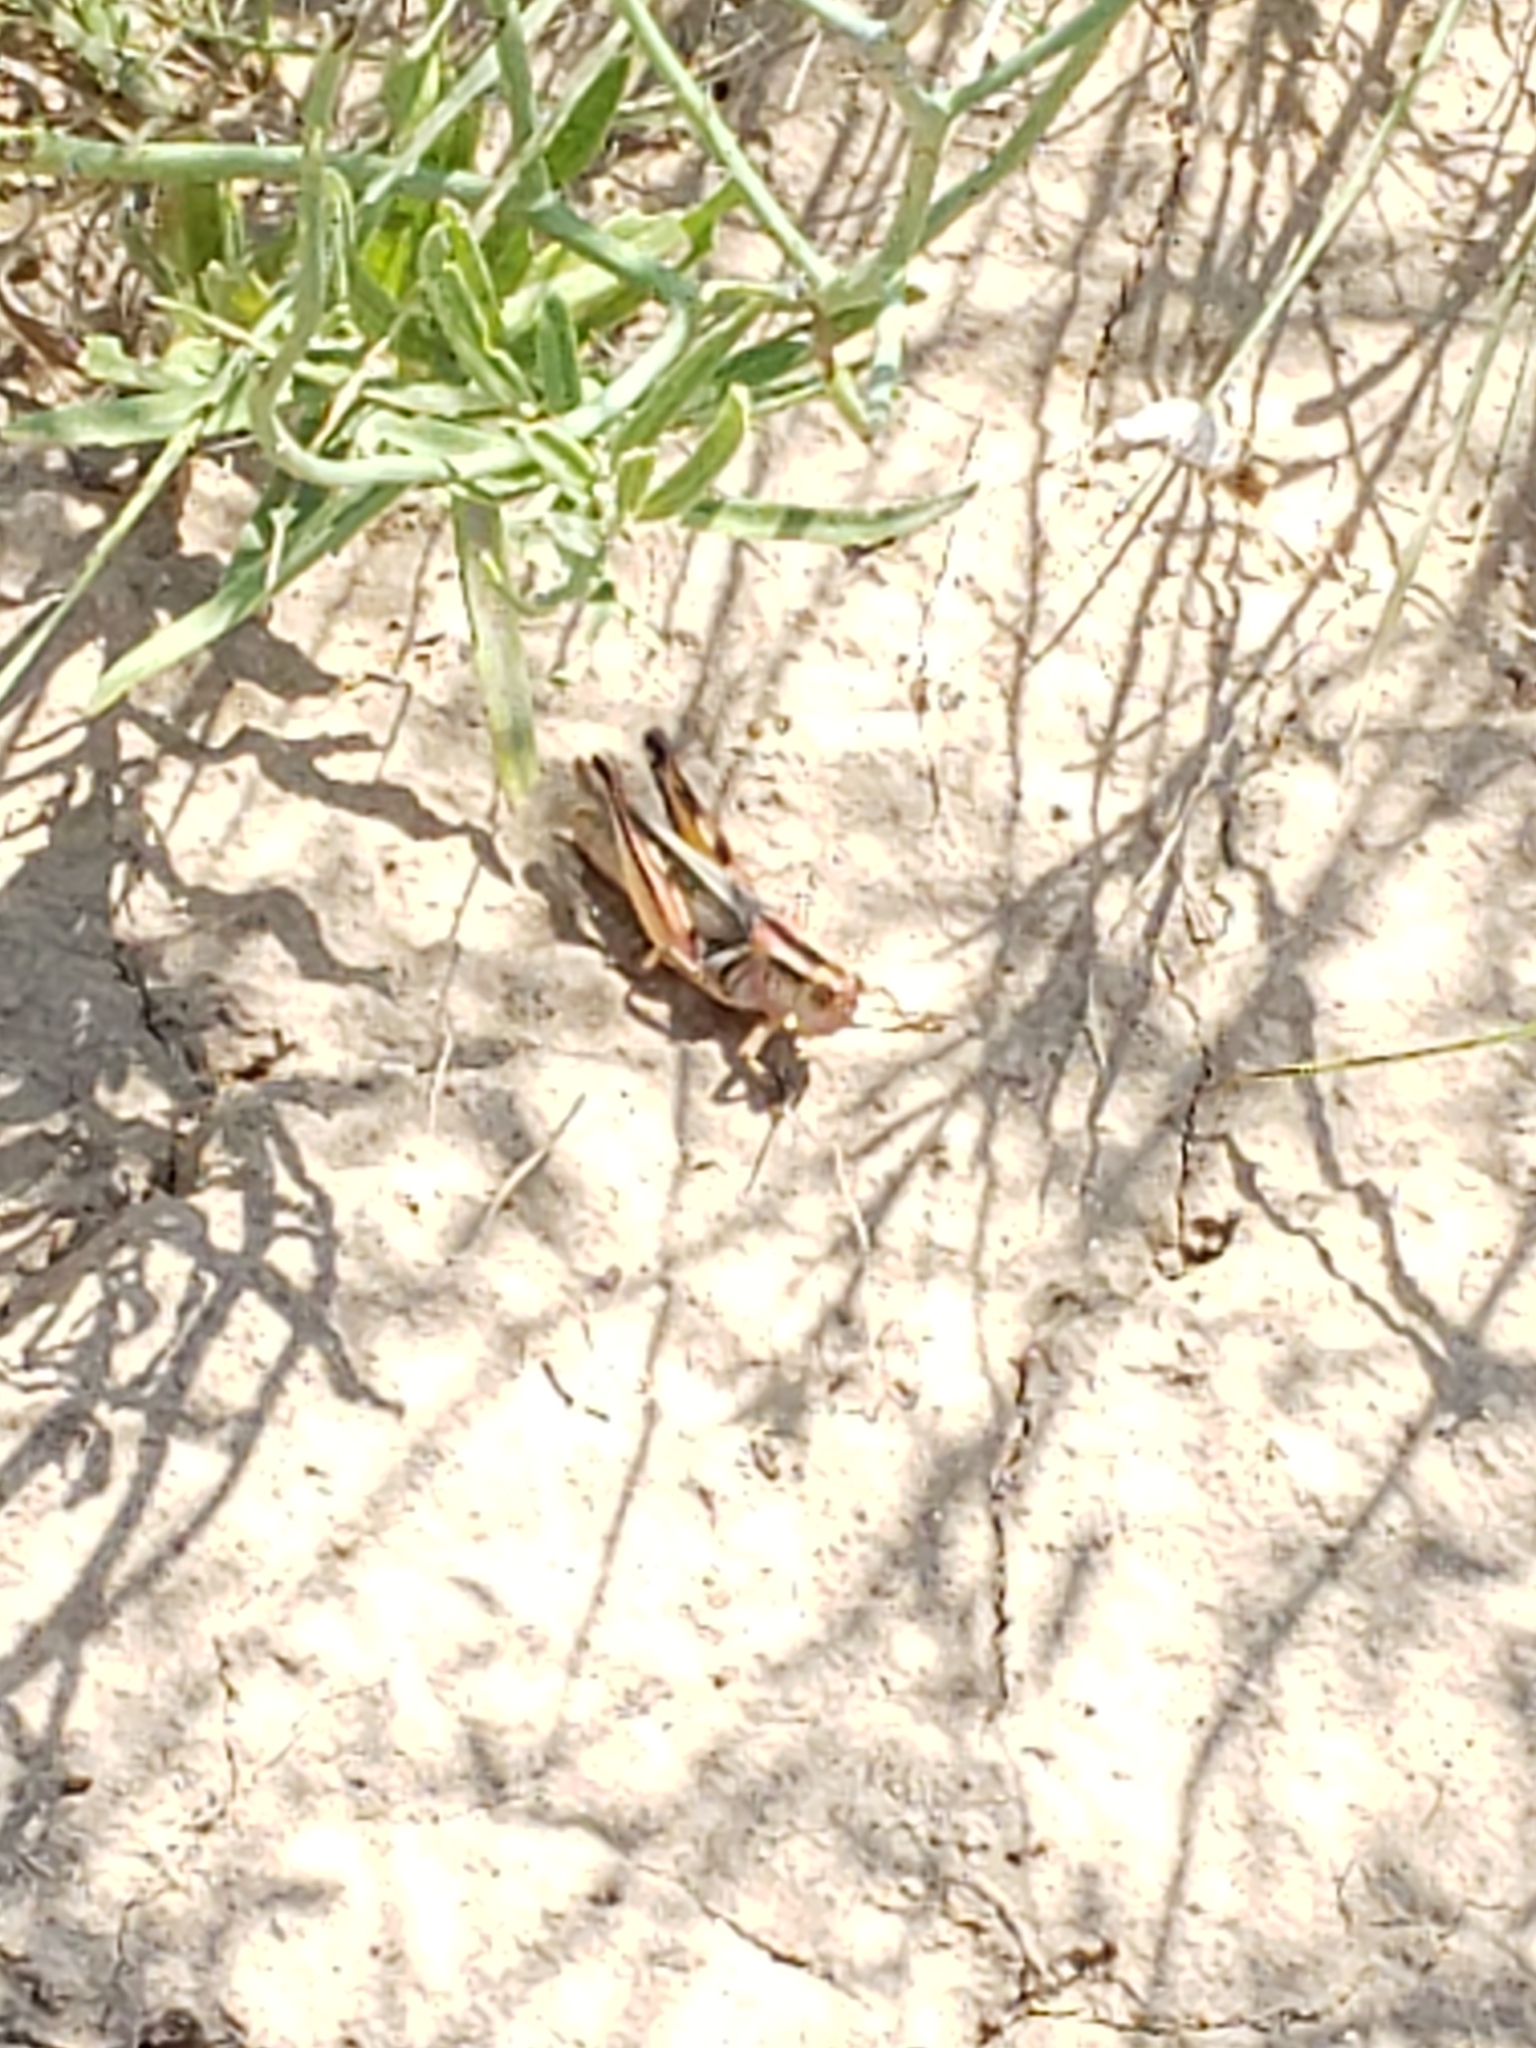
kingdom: Animalia
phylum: Arthropoda
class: Insecta
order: Orthoptera
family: Acrididae
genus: Melanoplus
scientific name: Melanoplus bivittatus
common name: Two-striped grasshopper
